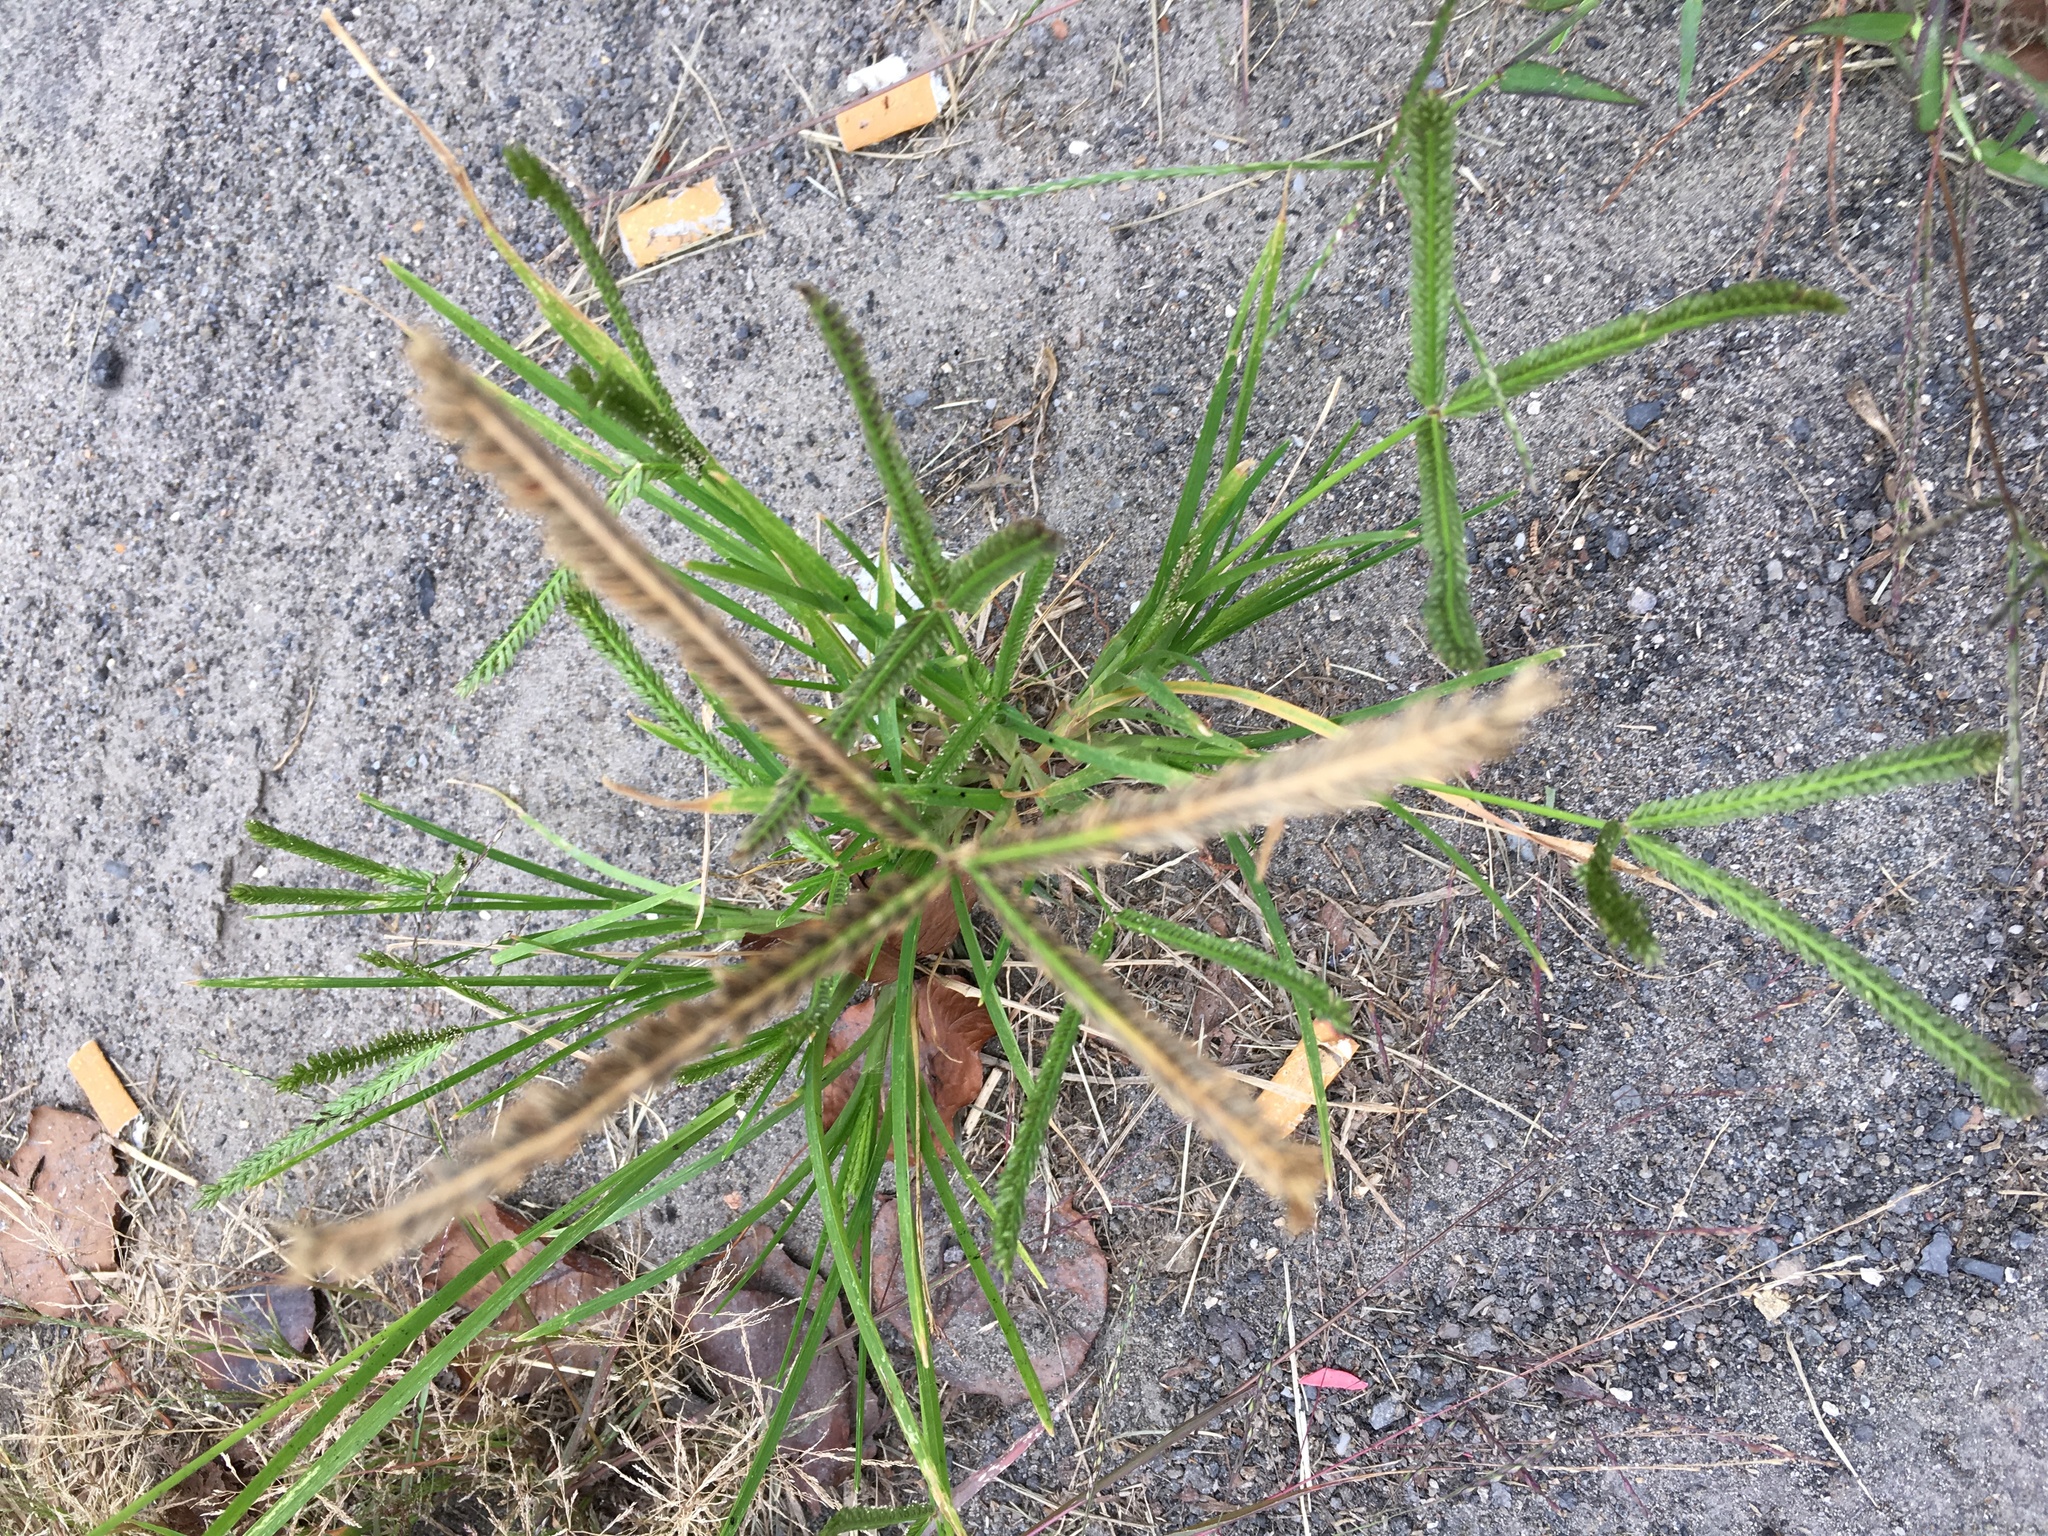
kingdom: Plantae
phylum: Tracheophyta
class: Liliopsida
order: Poales
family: Poaceae
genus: Eleusine
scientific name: Eleusine indica
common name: Yard-grass
